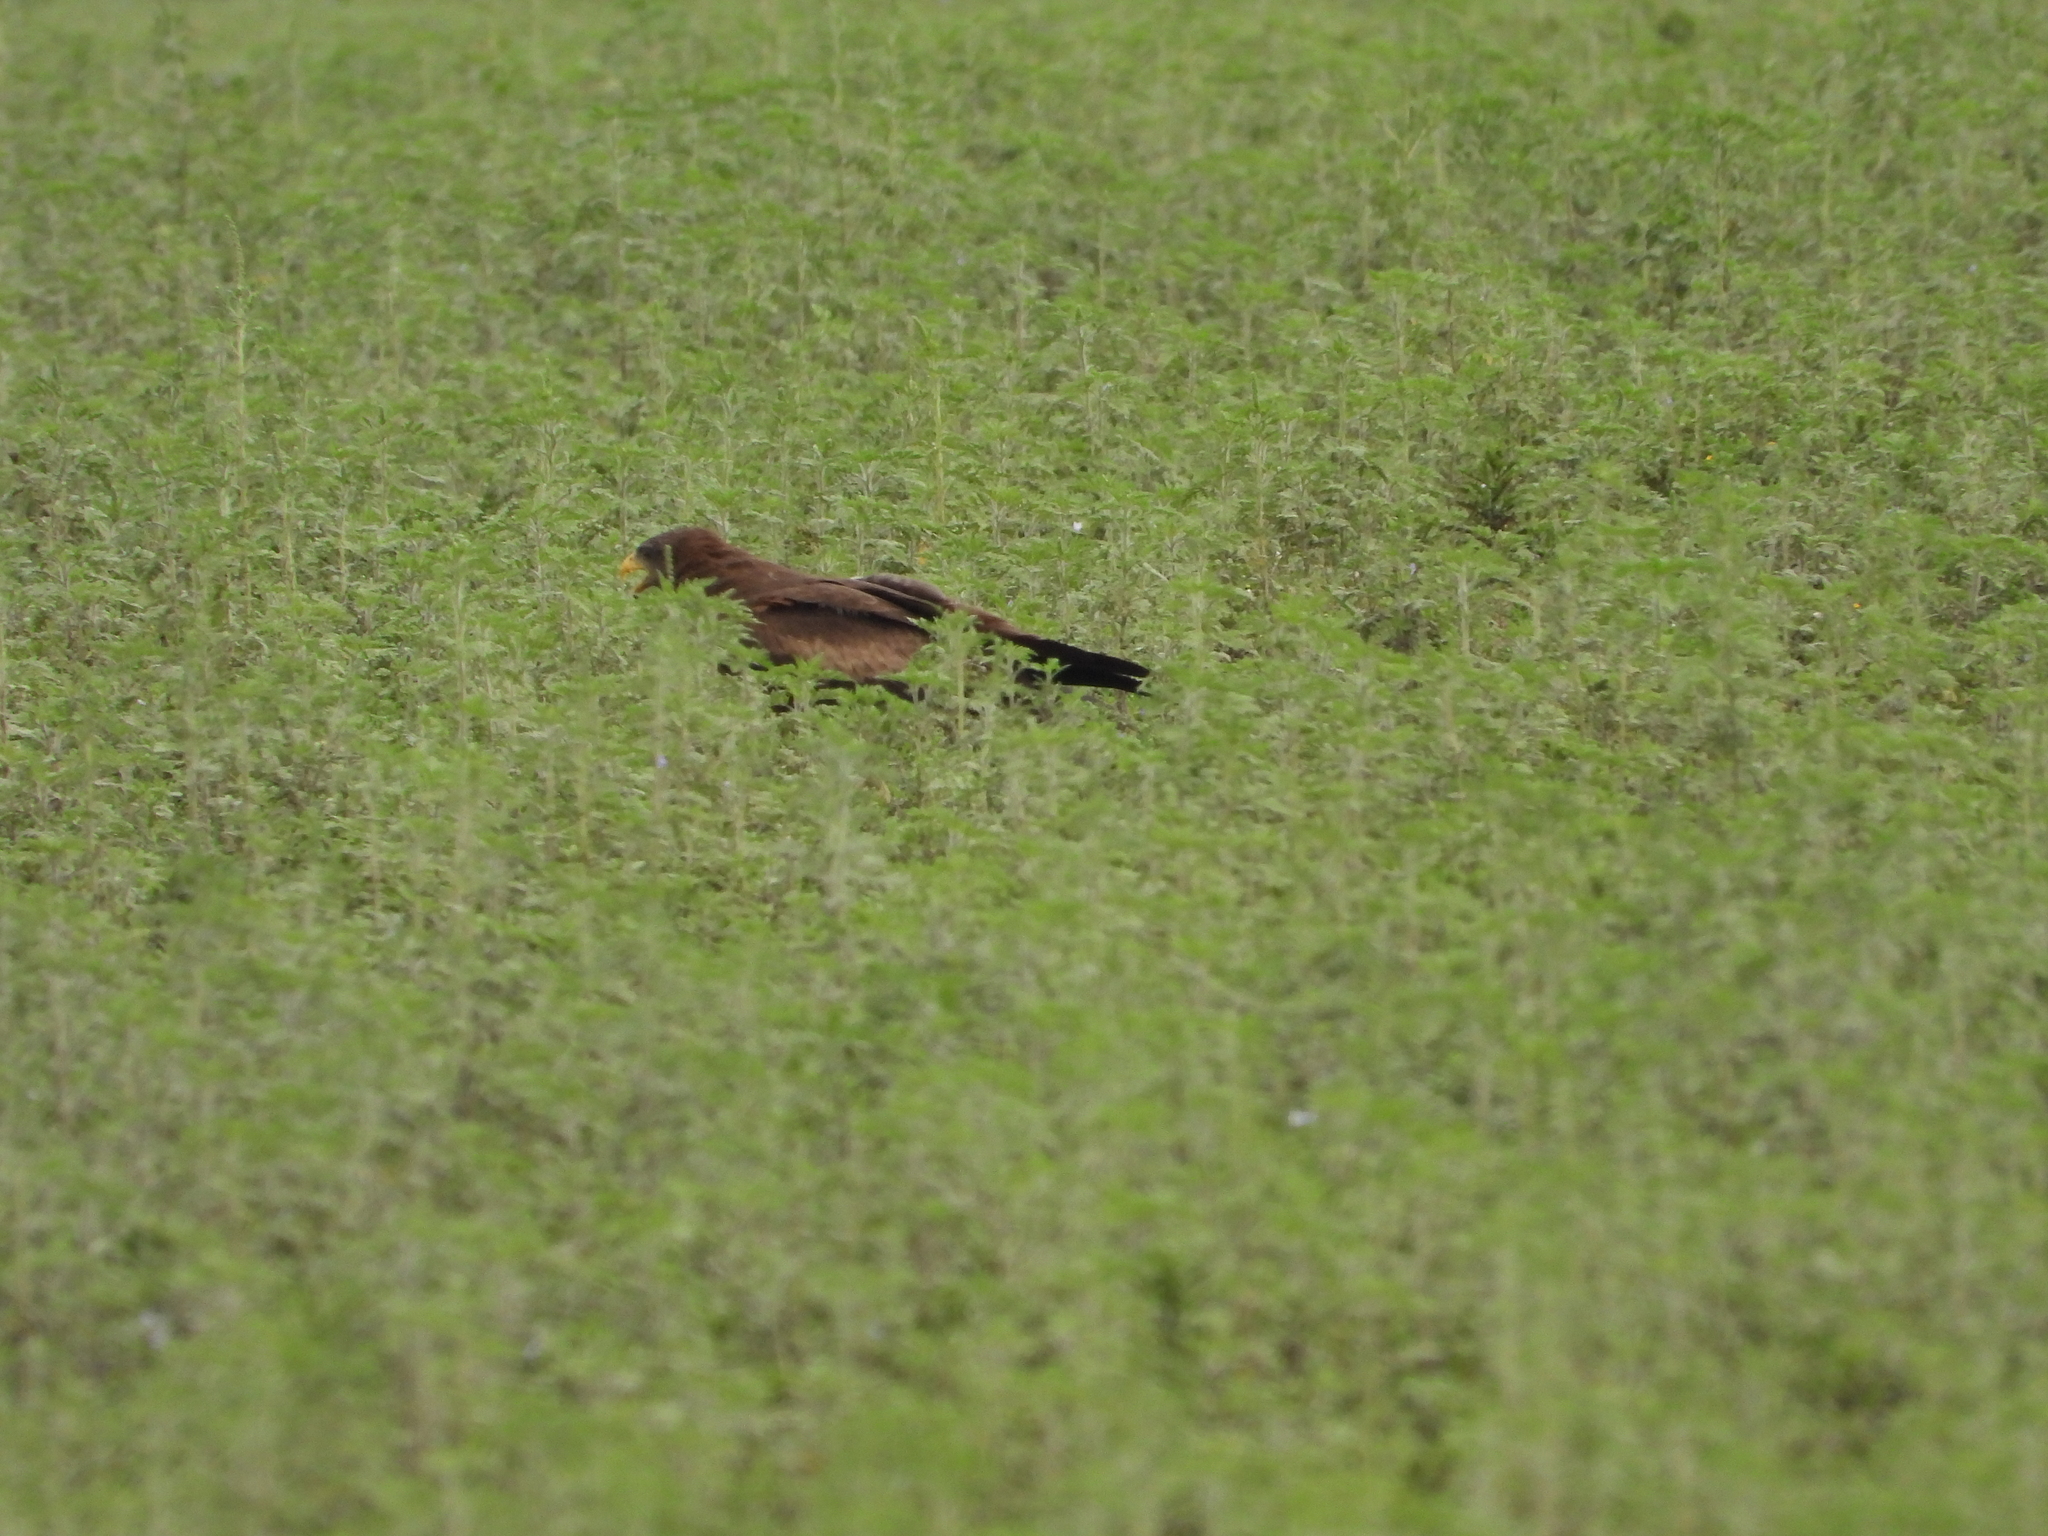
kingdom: Animalia
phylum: Chordata
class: Aves
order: Accipitriformes
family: Accipitridae
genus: Milvus
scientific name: Milvus migrans
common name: Black kite
